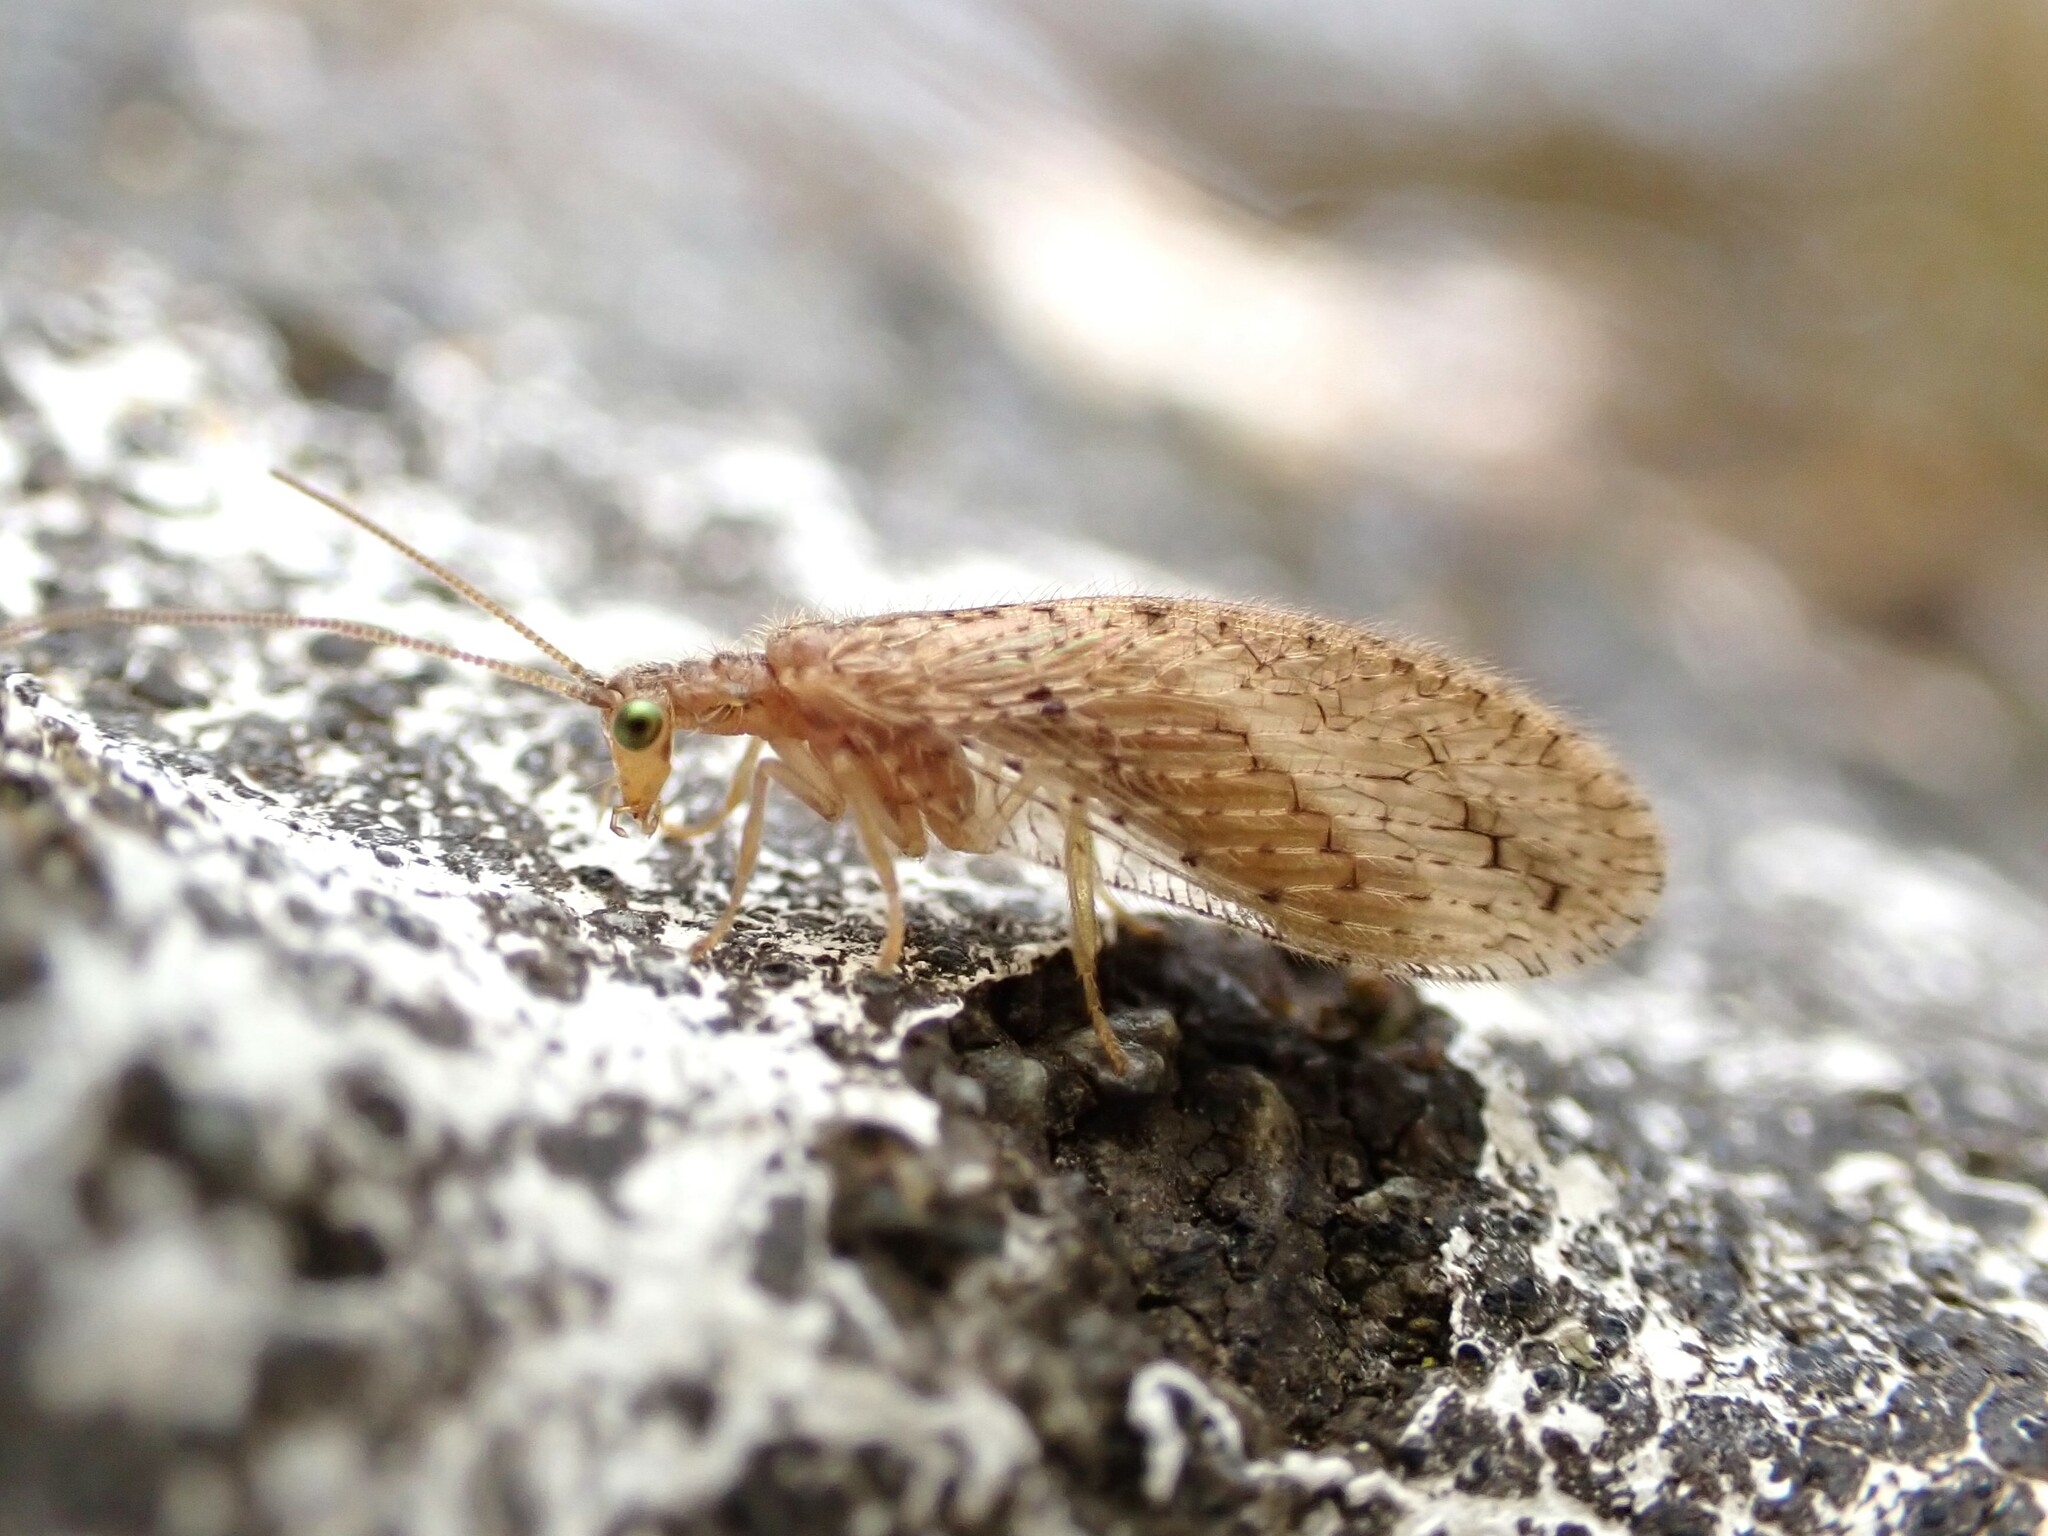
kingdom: Animalia
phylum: Arthropoda
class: Insecta
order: Neuroptera
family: Hemerobiidae
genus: Micromus
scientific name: Micromus tasmaniae
